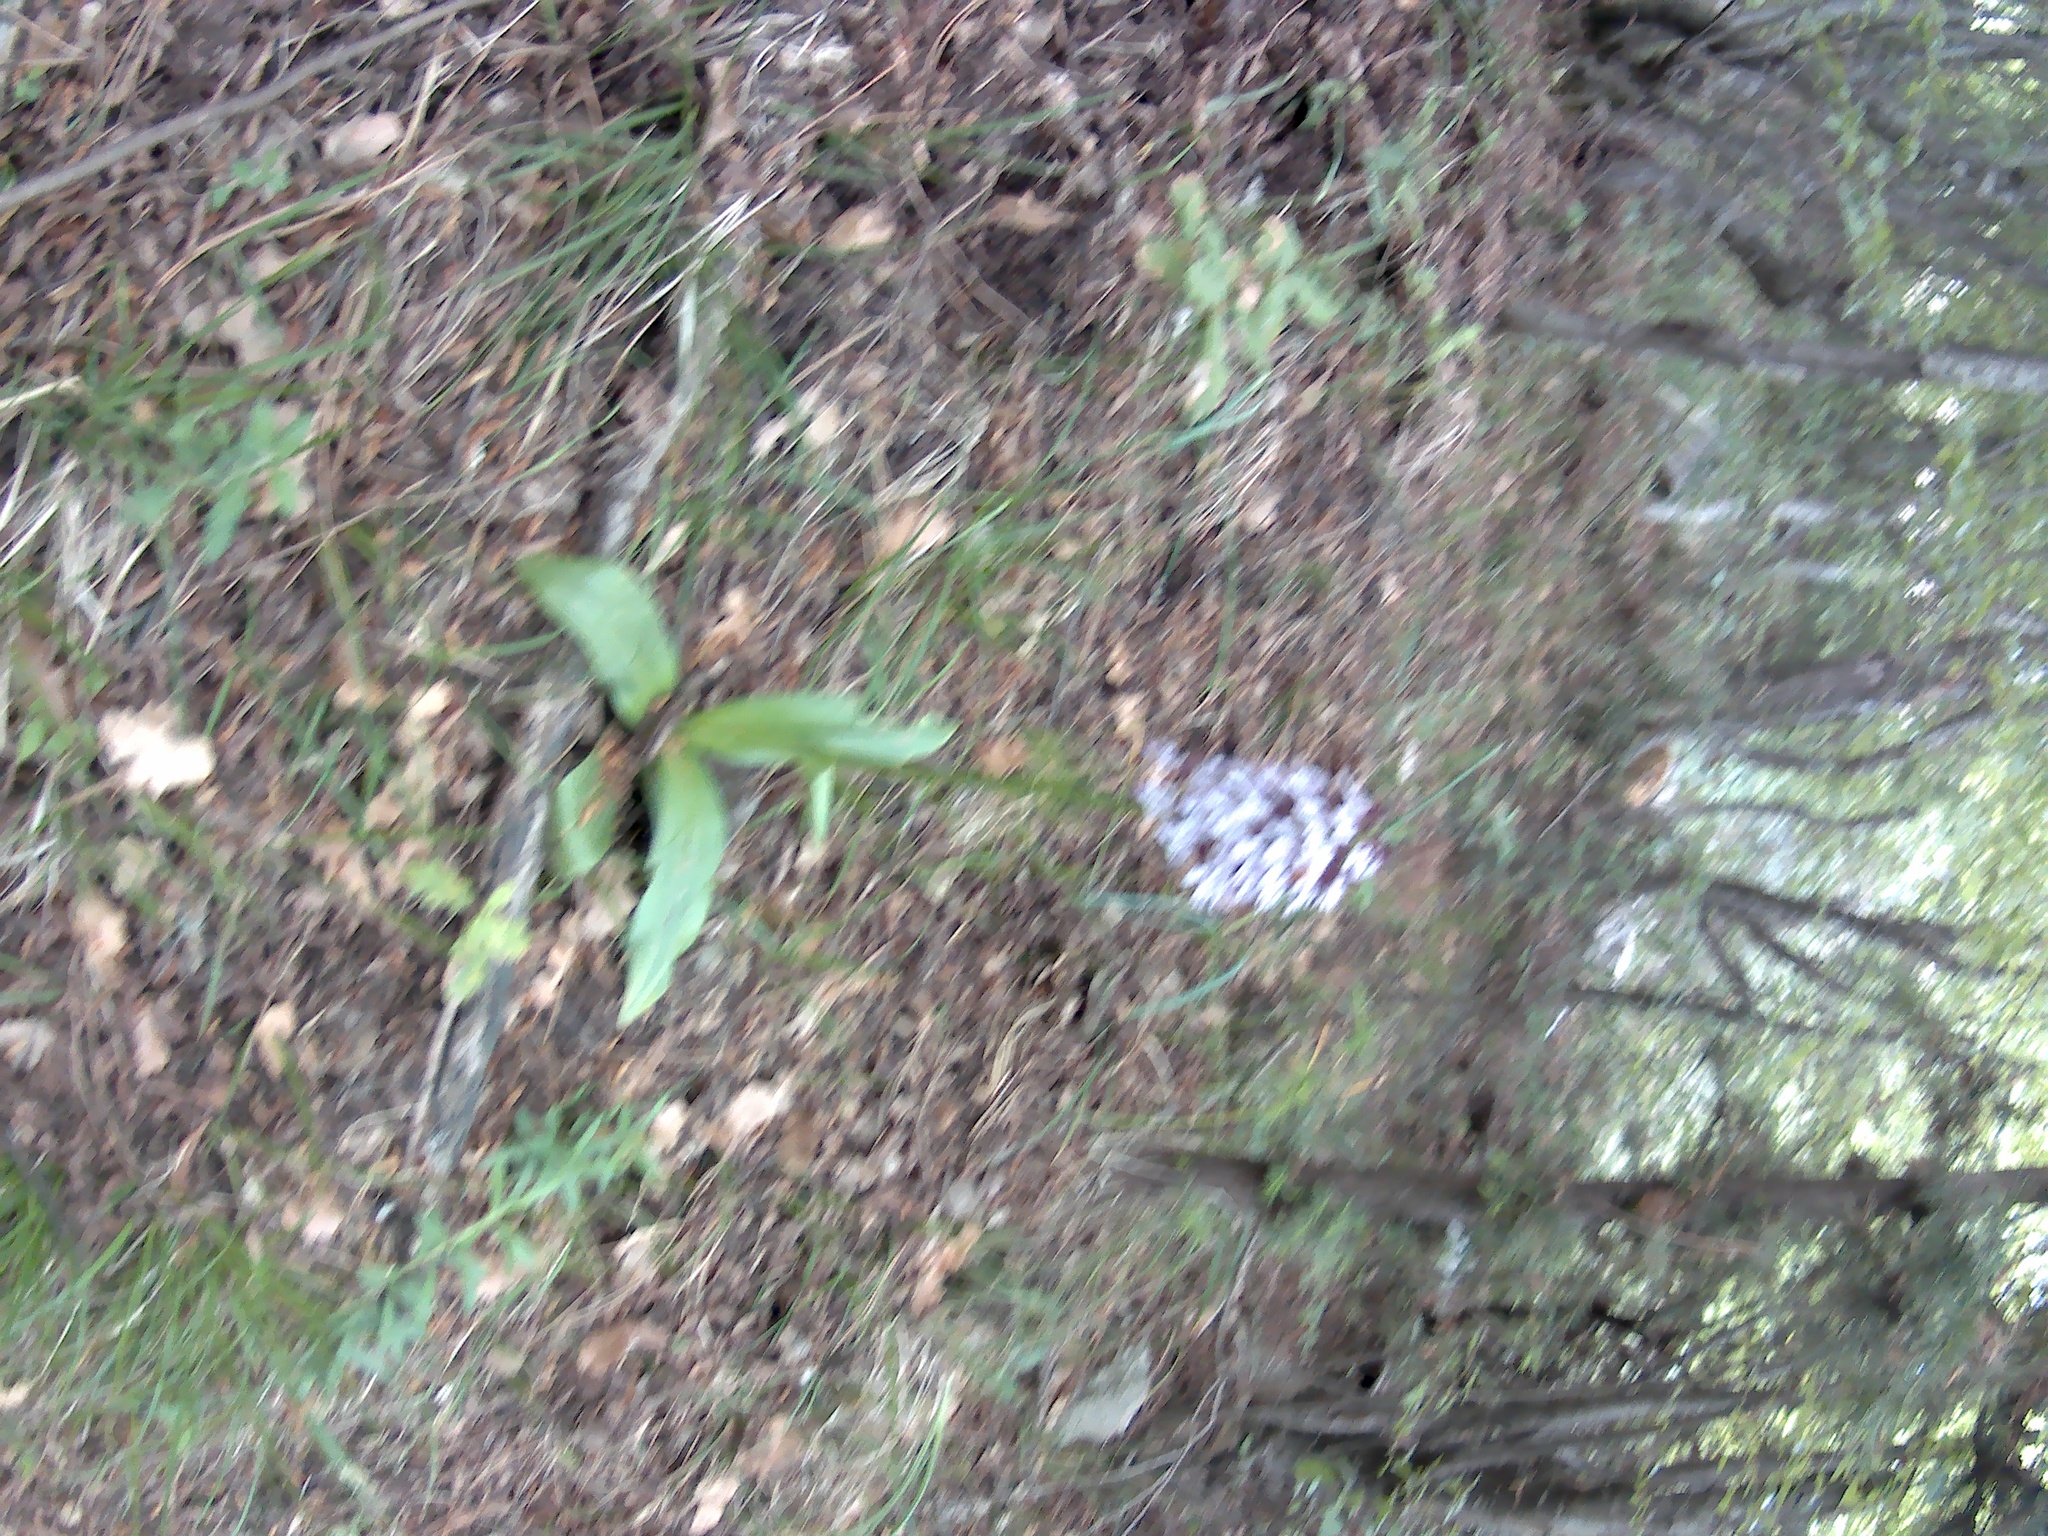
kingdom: Plantae
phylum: Tracheophyta
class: Liliopsida
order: Asparagales
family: Orchidaceae
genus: Orchis
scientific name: Orchis purpurea
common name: Lady orchid
